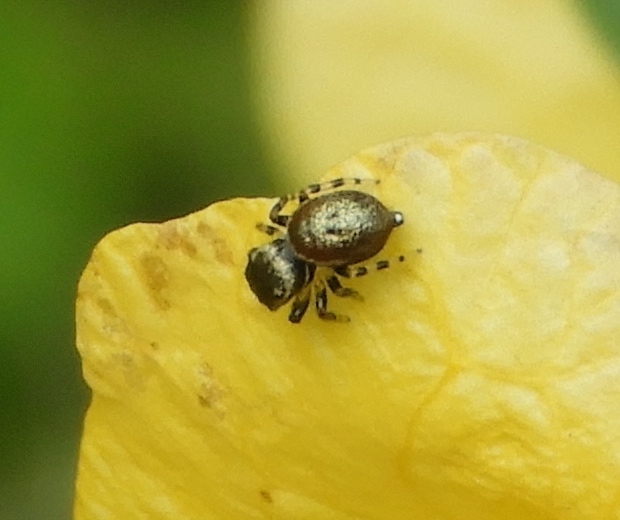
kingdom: Animalia
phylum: Arthropoda
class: Arachnida
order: Araneae
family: Salticidae
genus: Sassacus
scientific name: Sassacus vitis
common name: Jumping spiders
